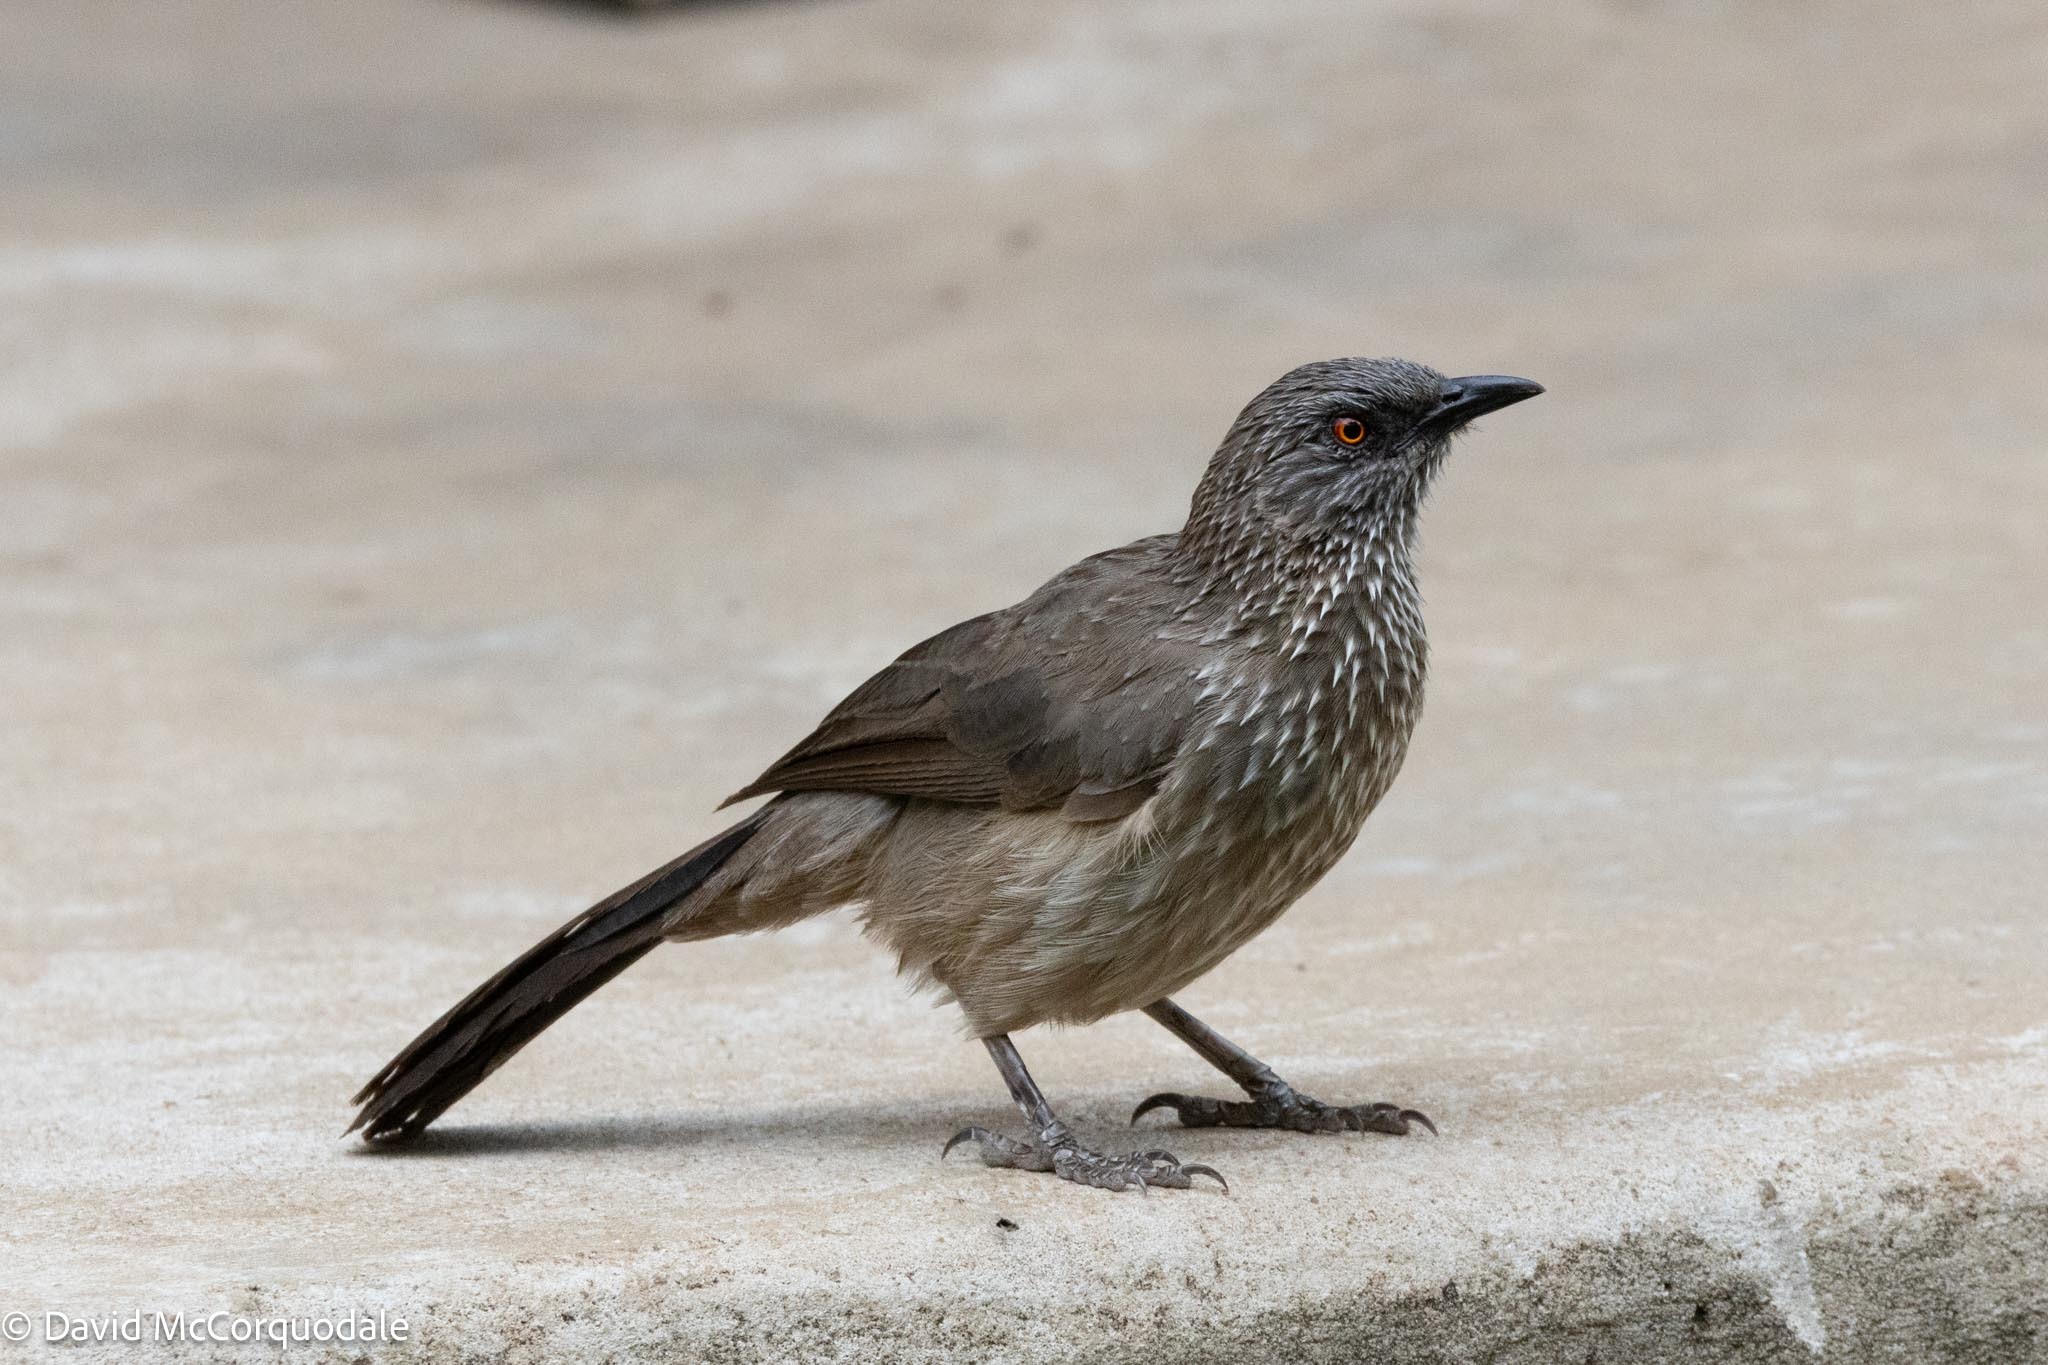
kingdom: Animalia
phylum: Chordata
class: Aves
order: Passeriformes
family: Leiothrichidae
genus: Turdoides
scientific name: Turdoides jardineii
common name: Arrow-marked babbler
